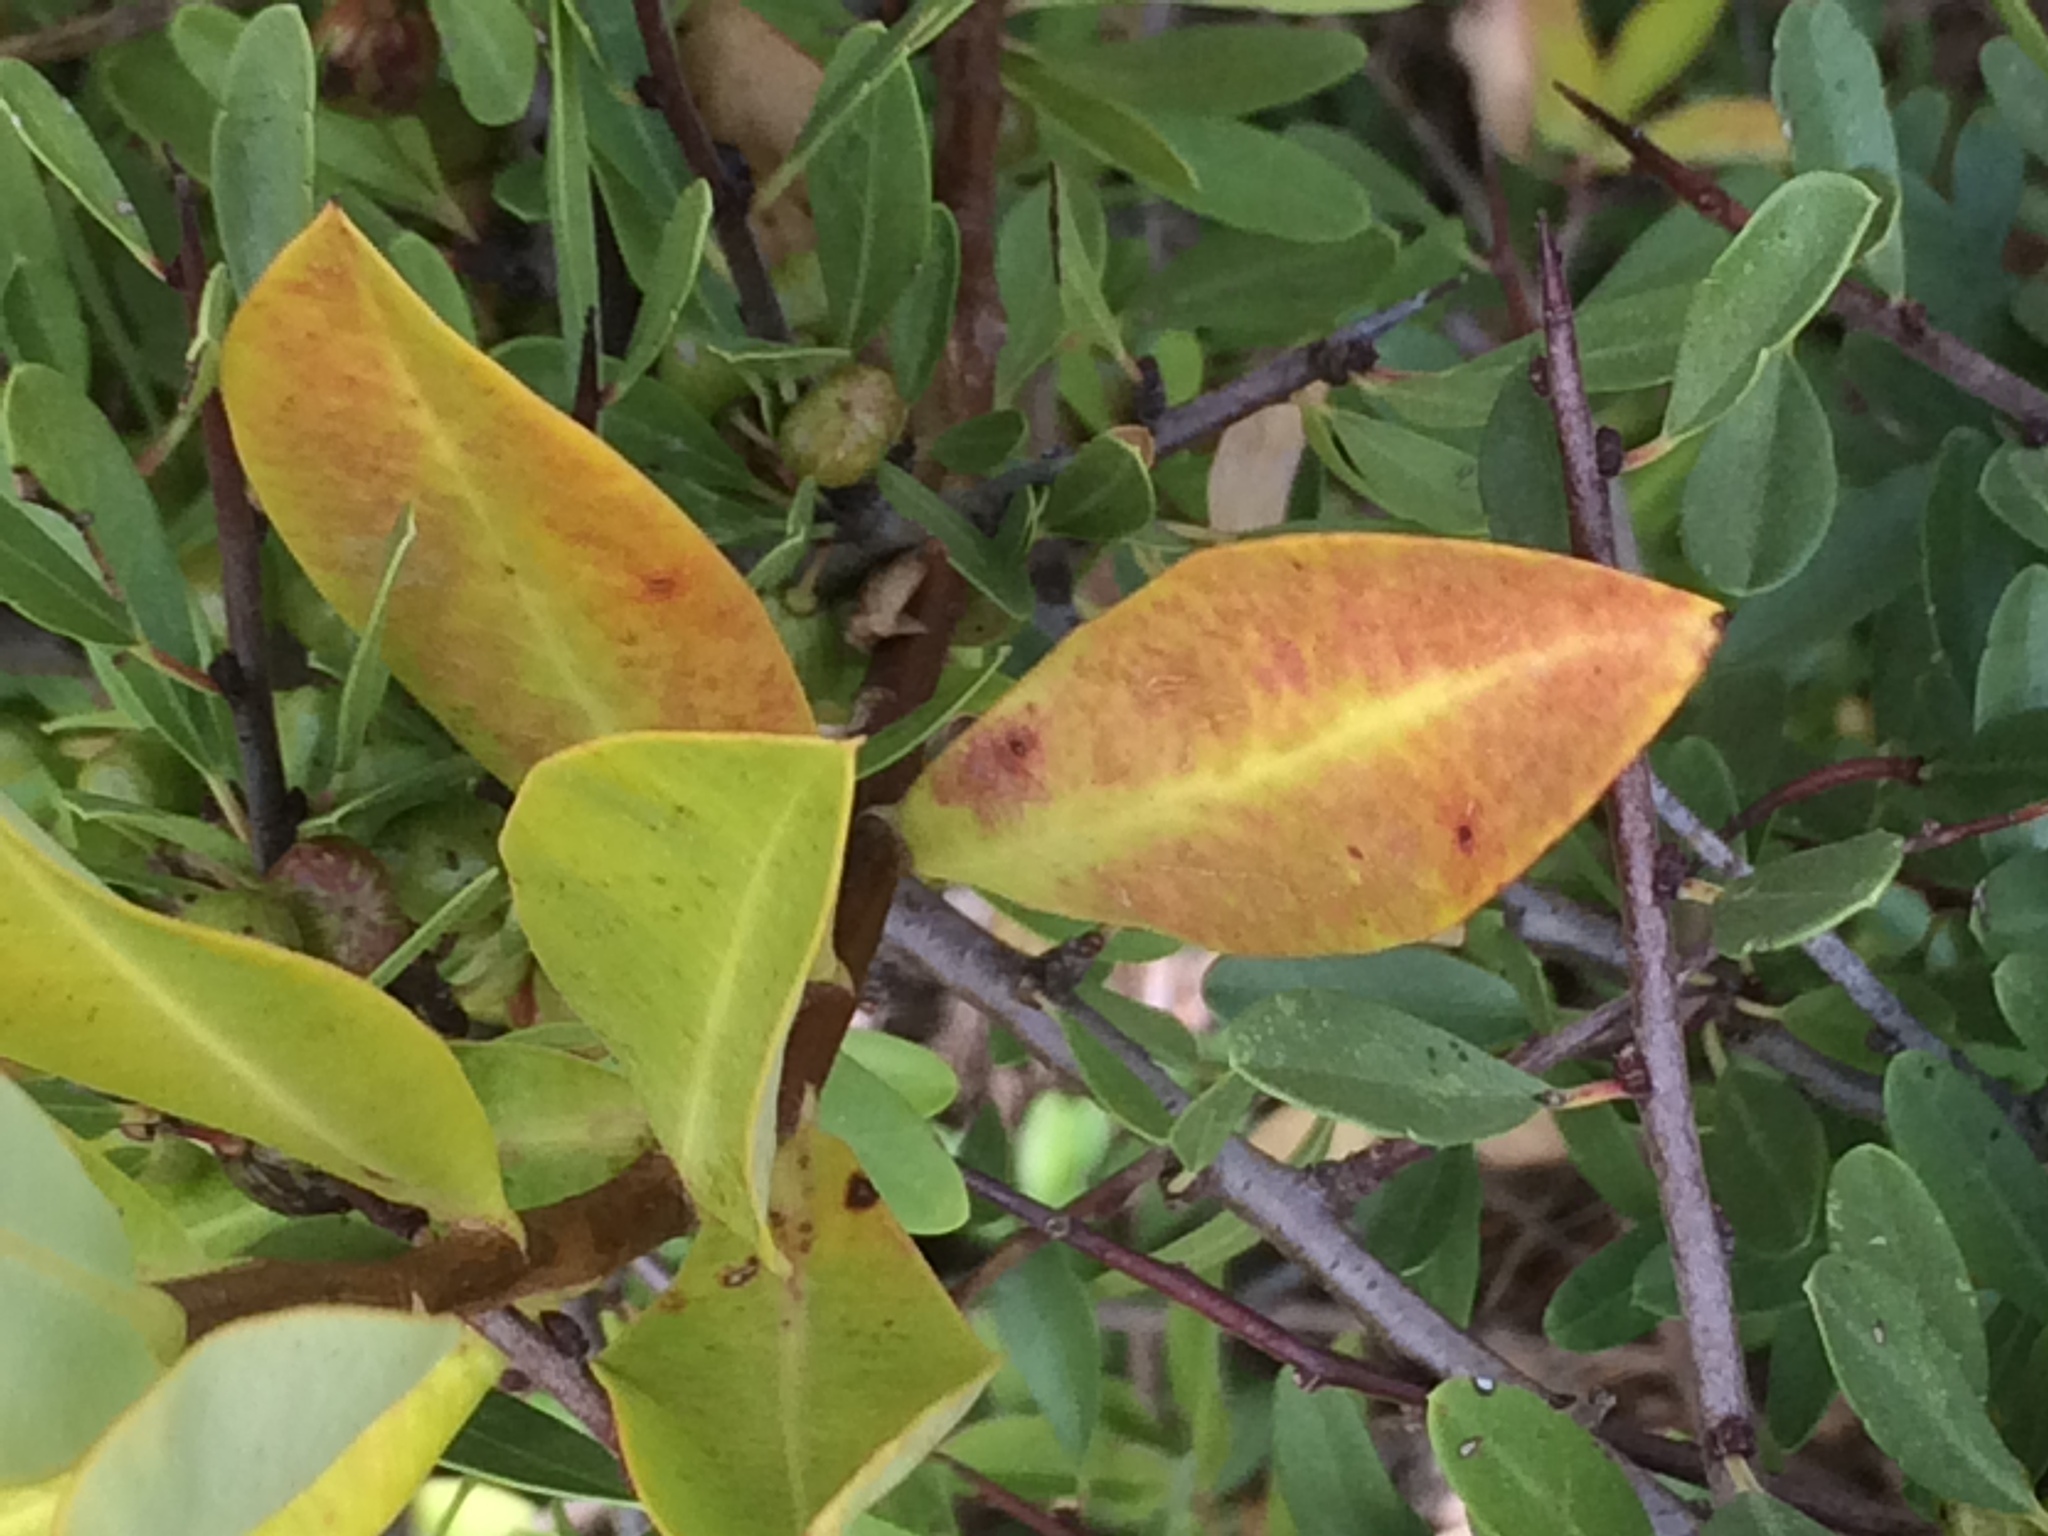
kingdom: Plantae
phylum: Tracheophyta
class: Magnoliopsida
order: Apiales
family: Apiaceae
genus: Bupleurum
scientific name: Bupleurum fruticosum
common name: Shrubby hare's-ear
